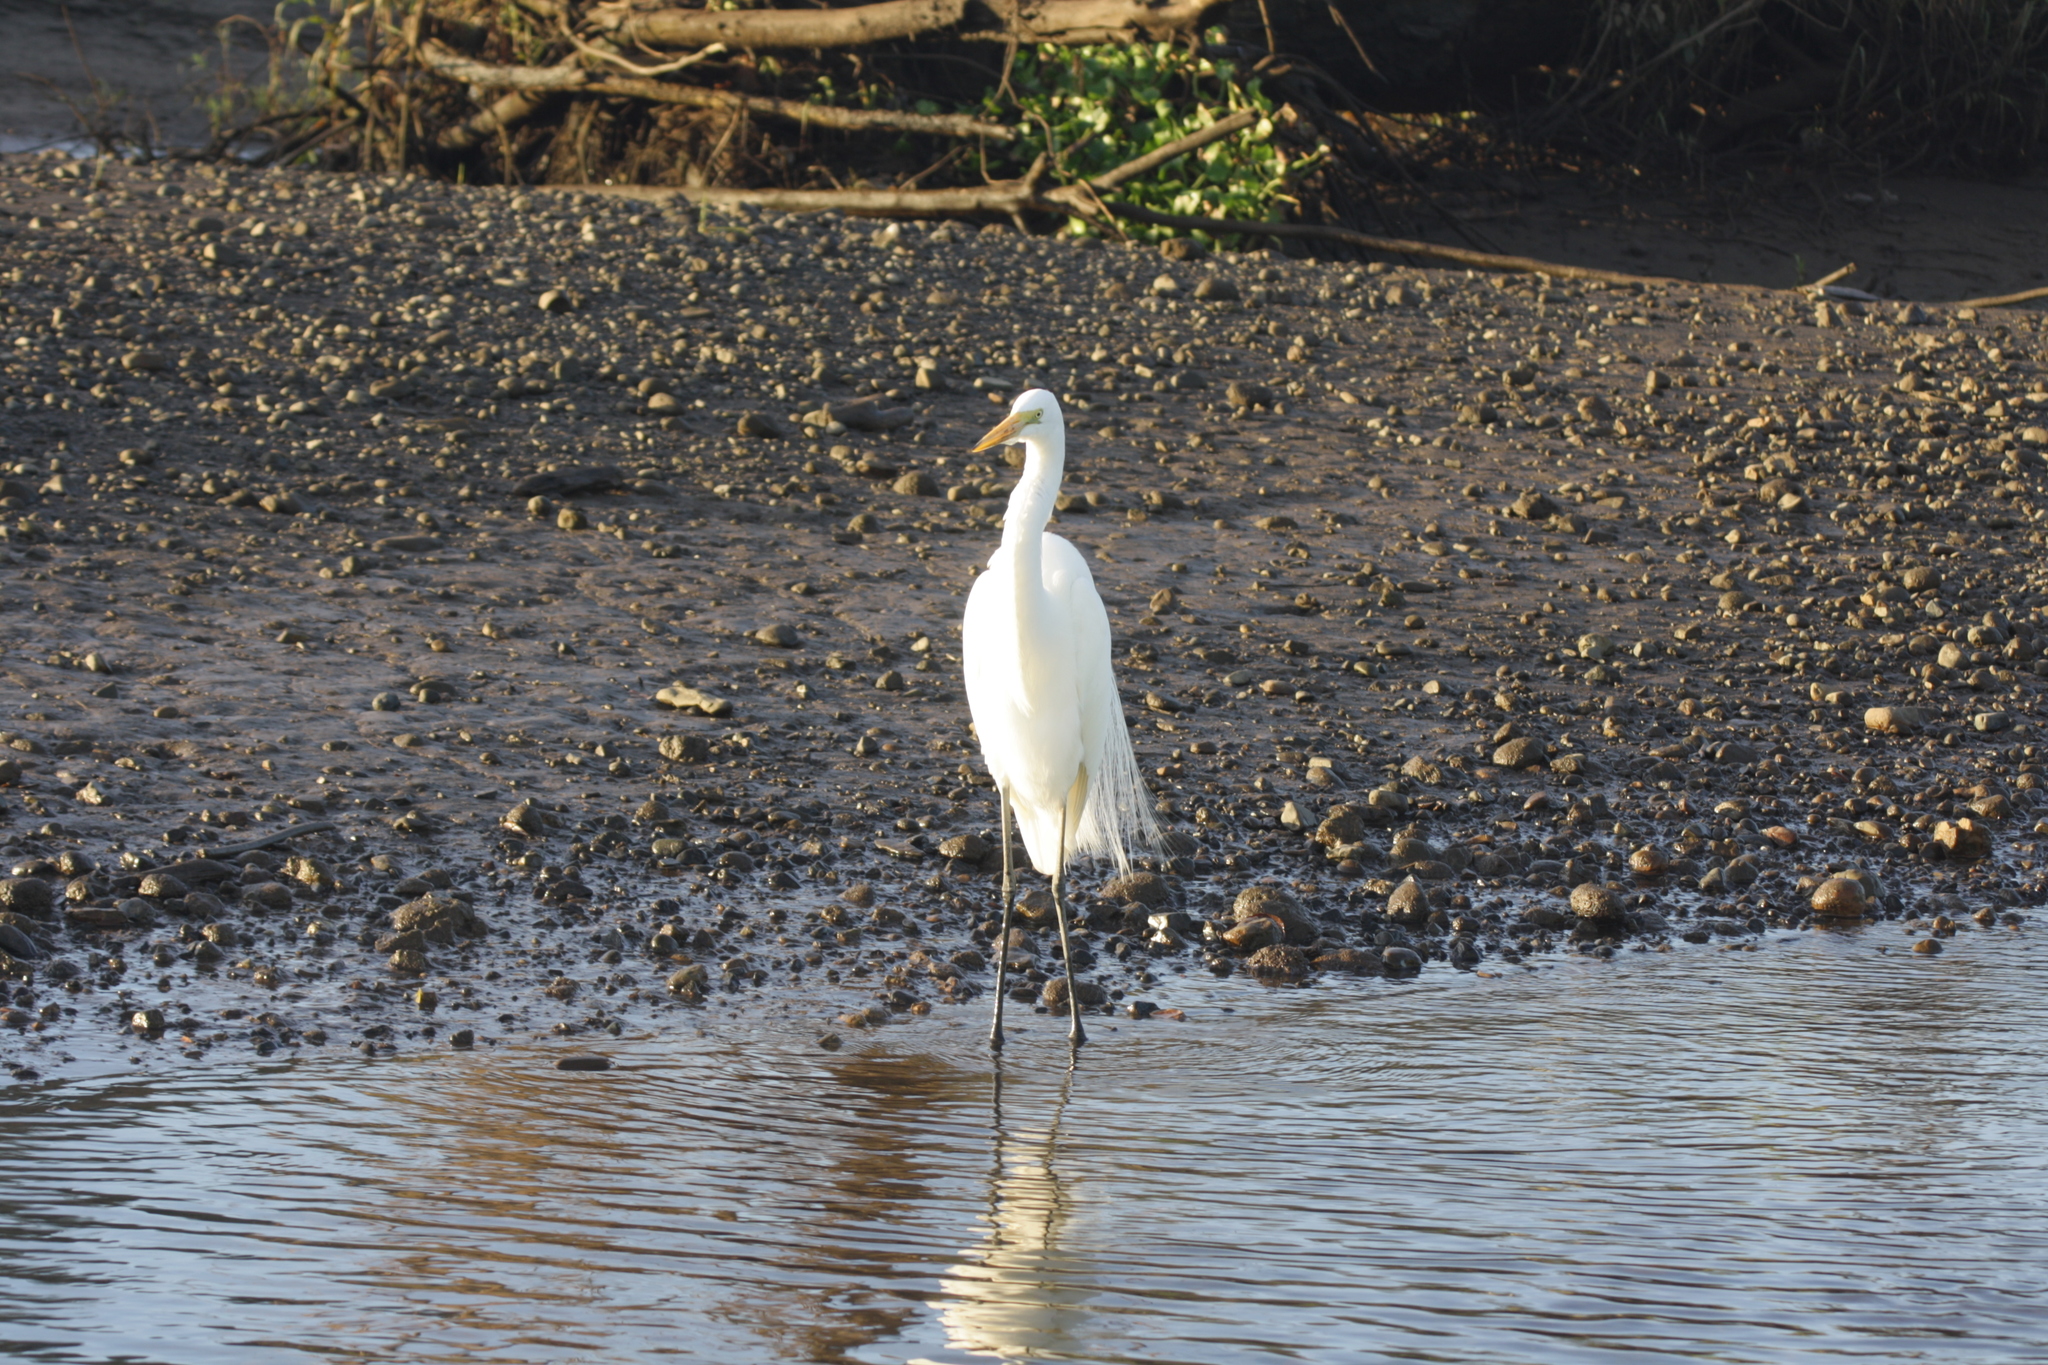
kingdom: Animalia
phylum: Chordata
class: Aves
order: Pelecaniformes
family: Ardeidae
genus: Ardea
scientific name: Ardea alba
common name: Great egret
